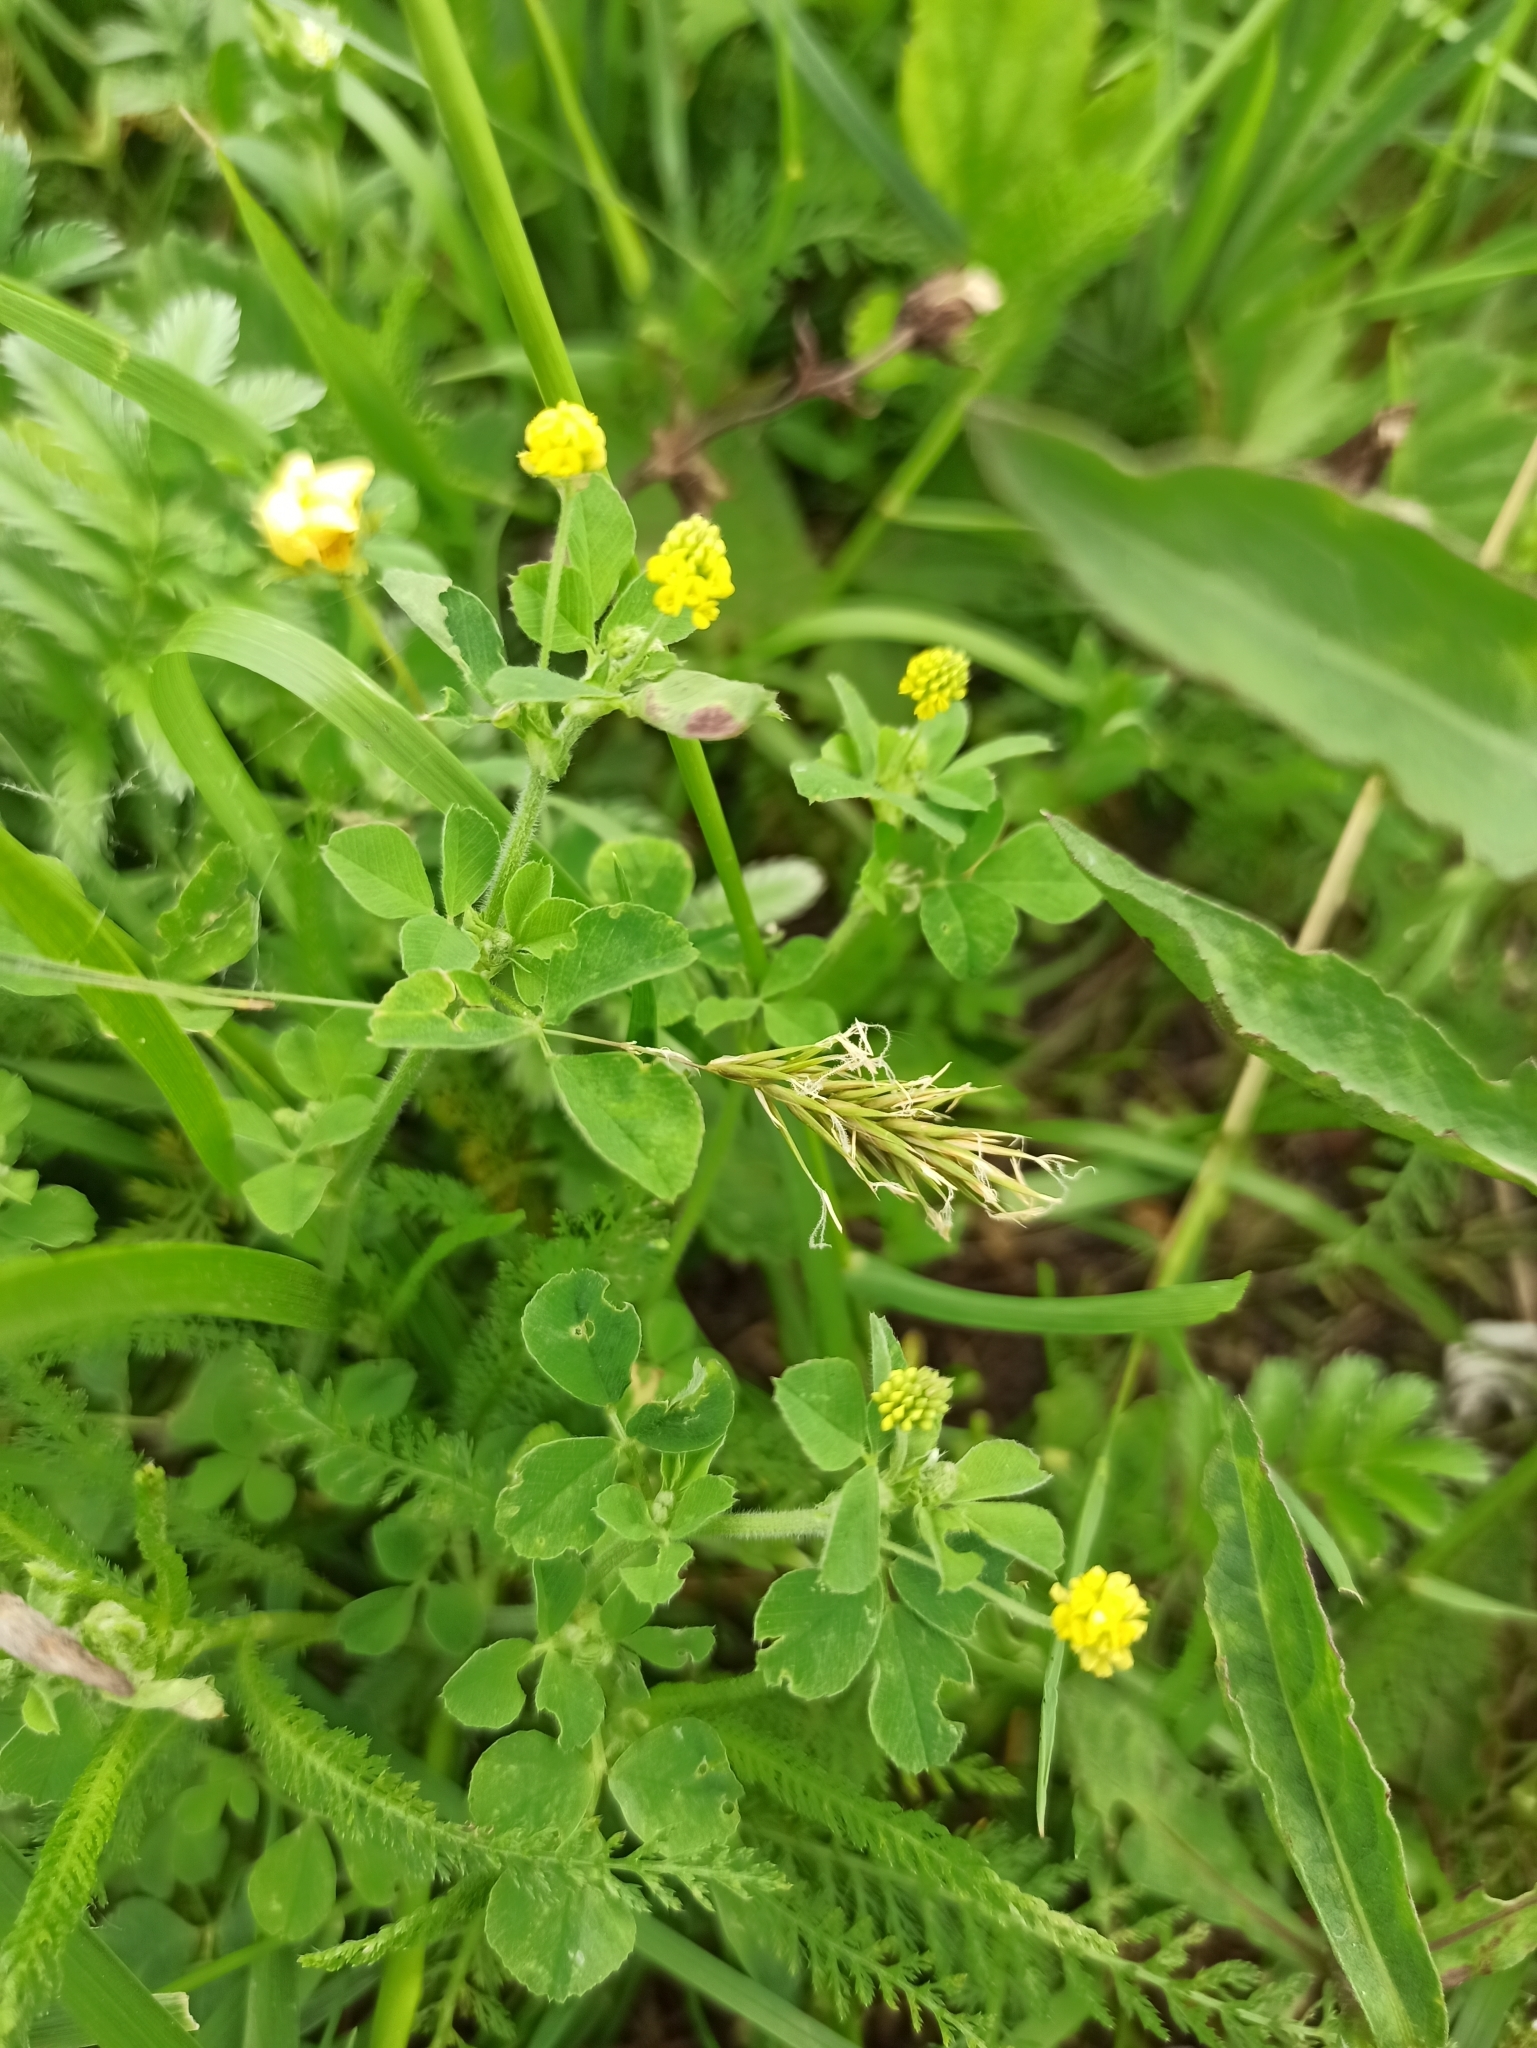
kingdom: Plantae
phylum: Tracheophyta
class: Magnoliopsida
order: Fabales
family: Fabaceae
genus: Medicago
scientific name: Medicago lupulina
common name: Black medick
